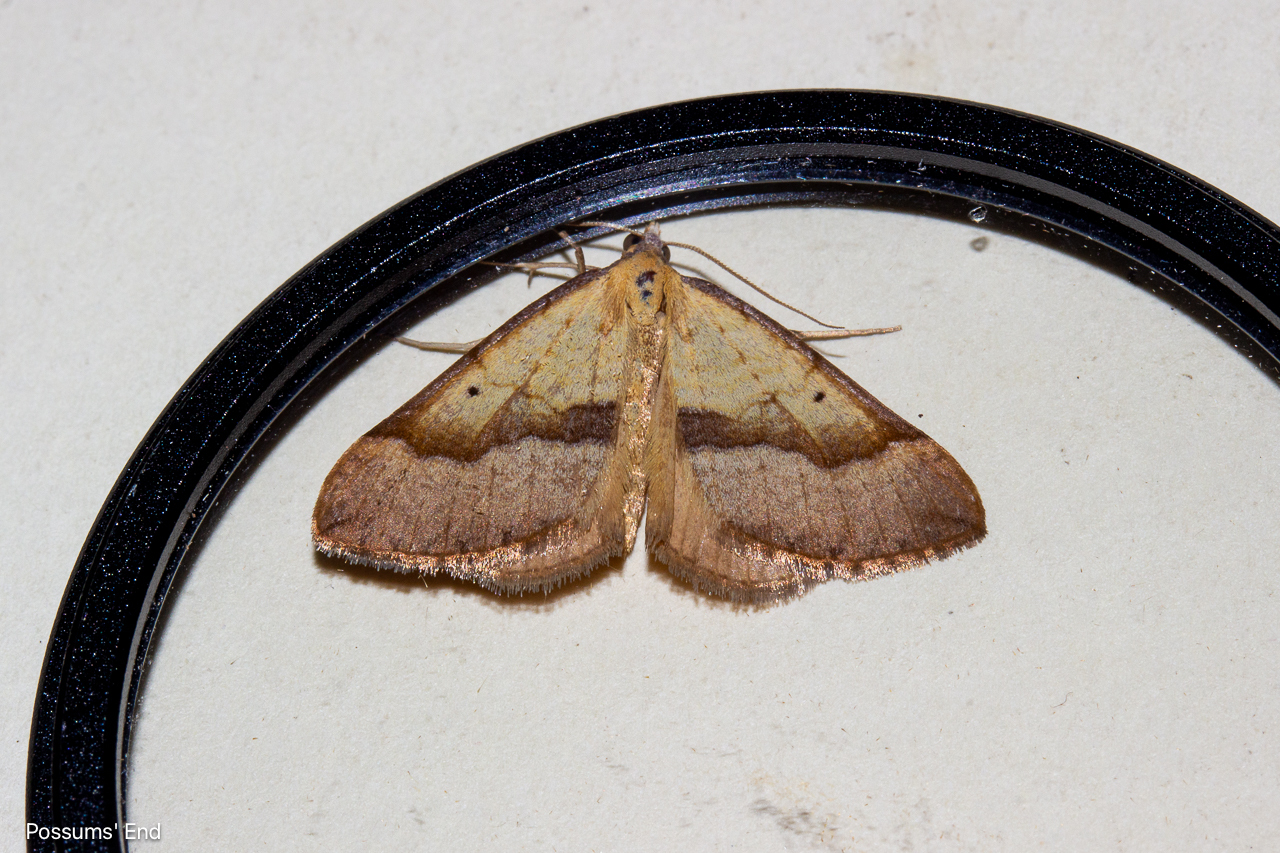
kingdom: Animalia
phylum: Arthropoda
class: Insecta
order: Lepidoptera
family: Geometridae
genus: Anachloris
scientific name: Anachloris subochraria
